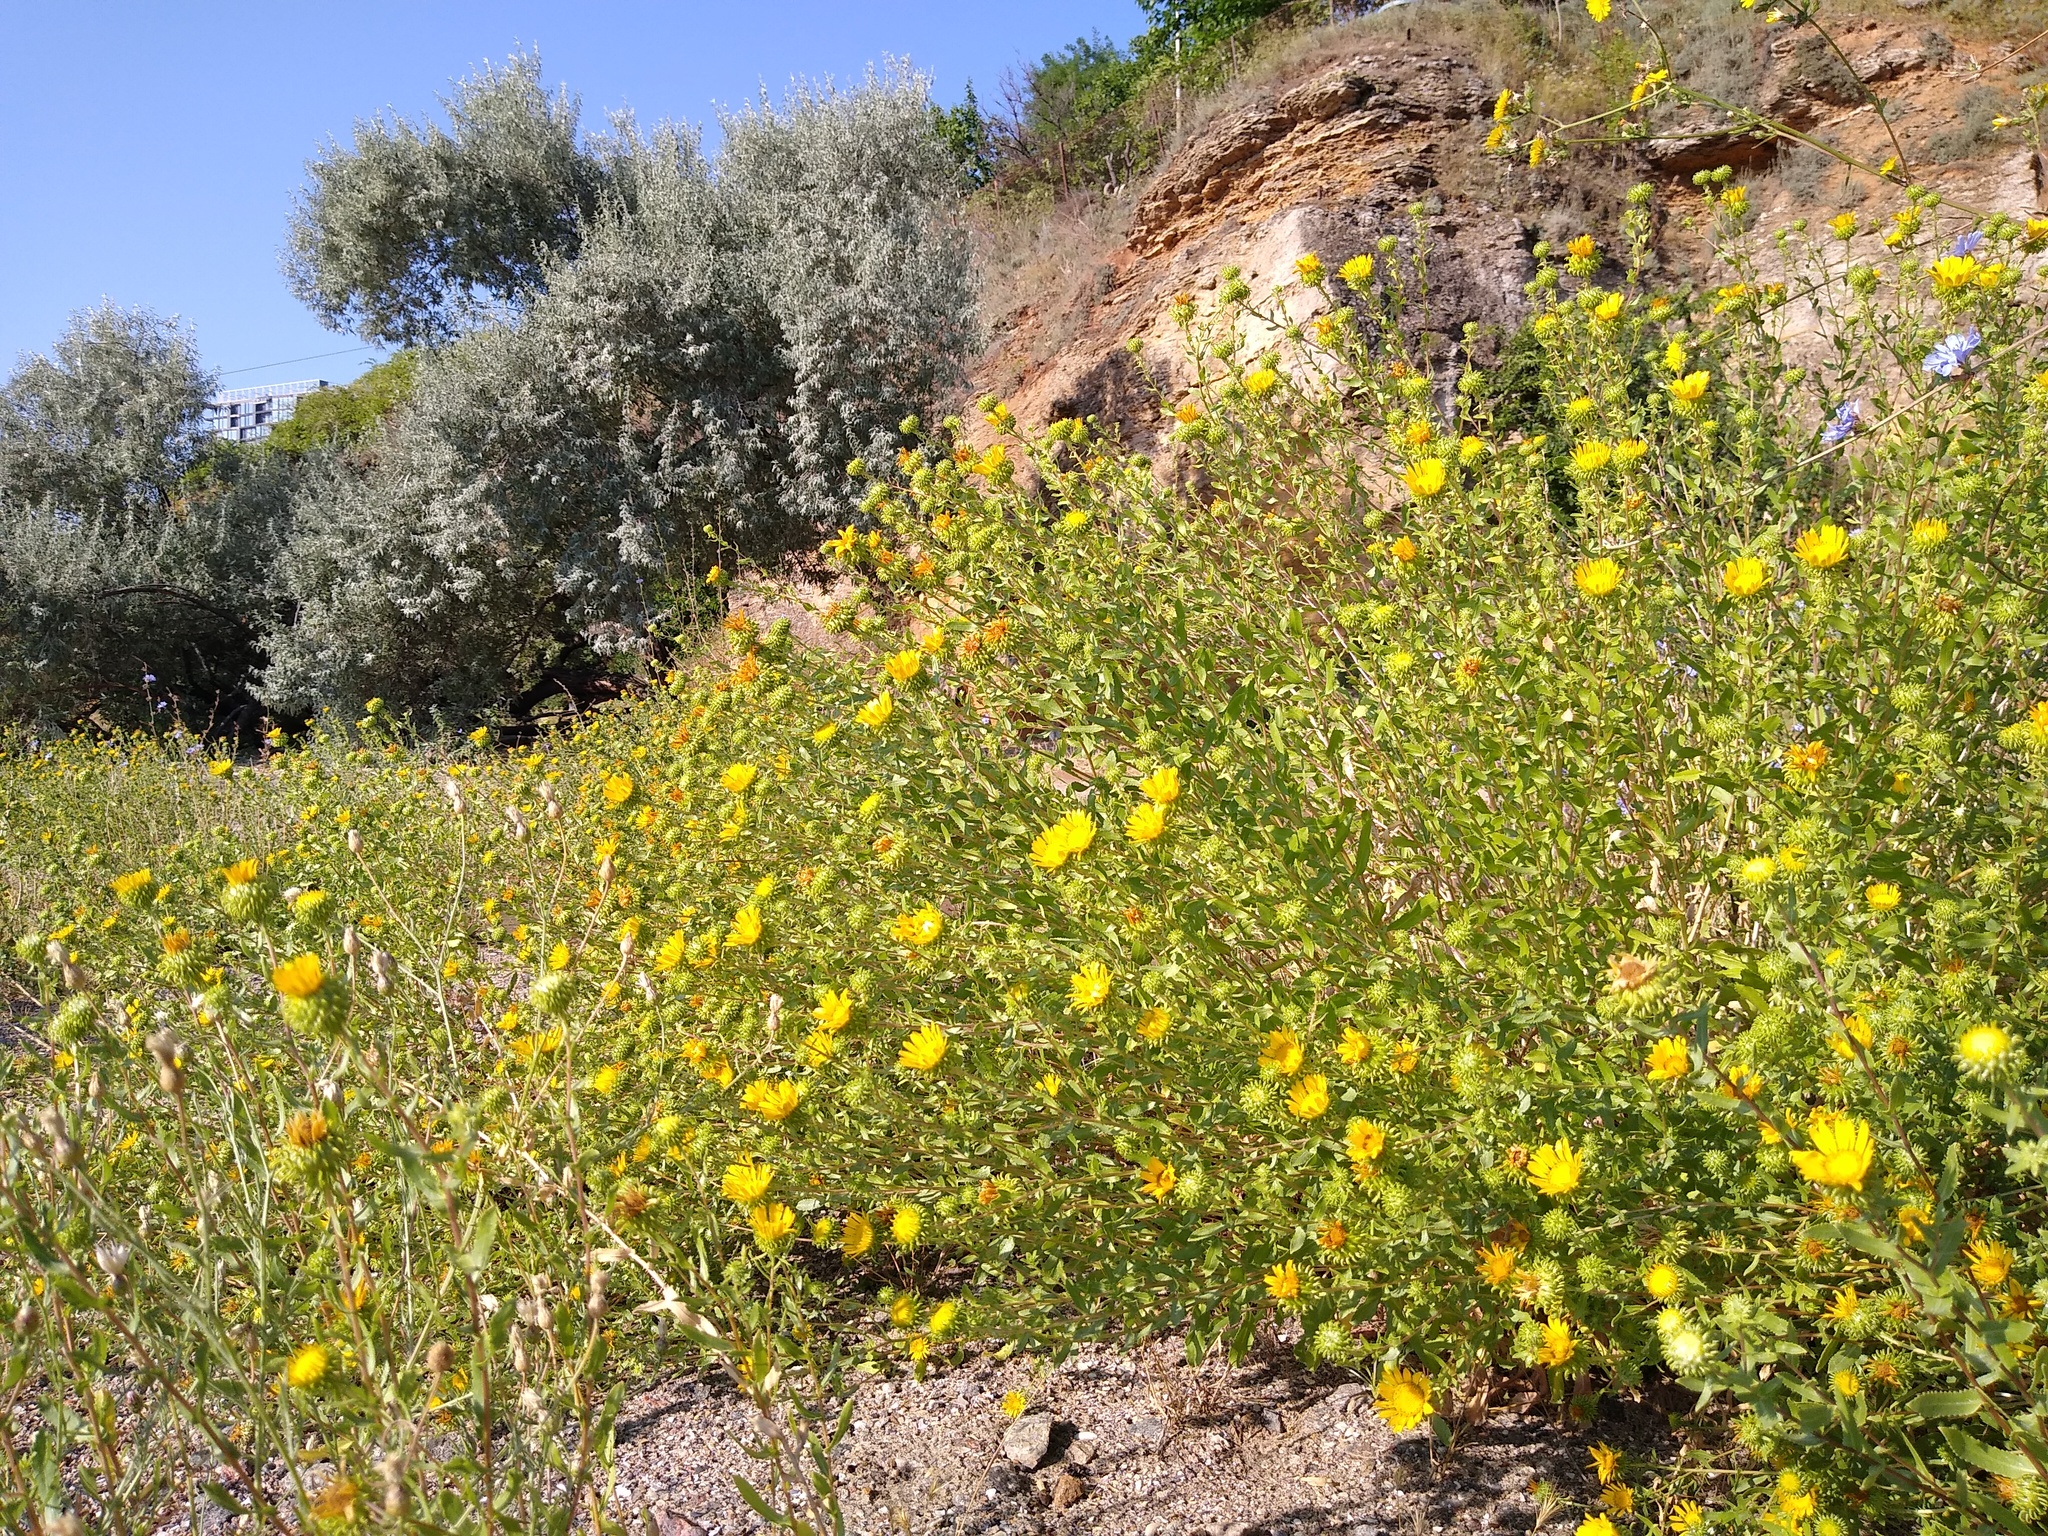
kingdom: Plantae
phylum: Tracheophyta
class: Magnoliopsida
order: Asterales
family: Asteraceae
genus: Grindelia
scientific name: Grindelia squarrosa
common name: Curly-cup gumweed
